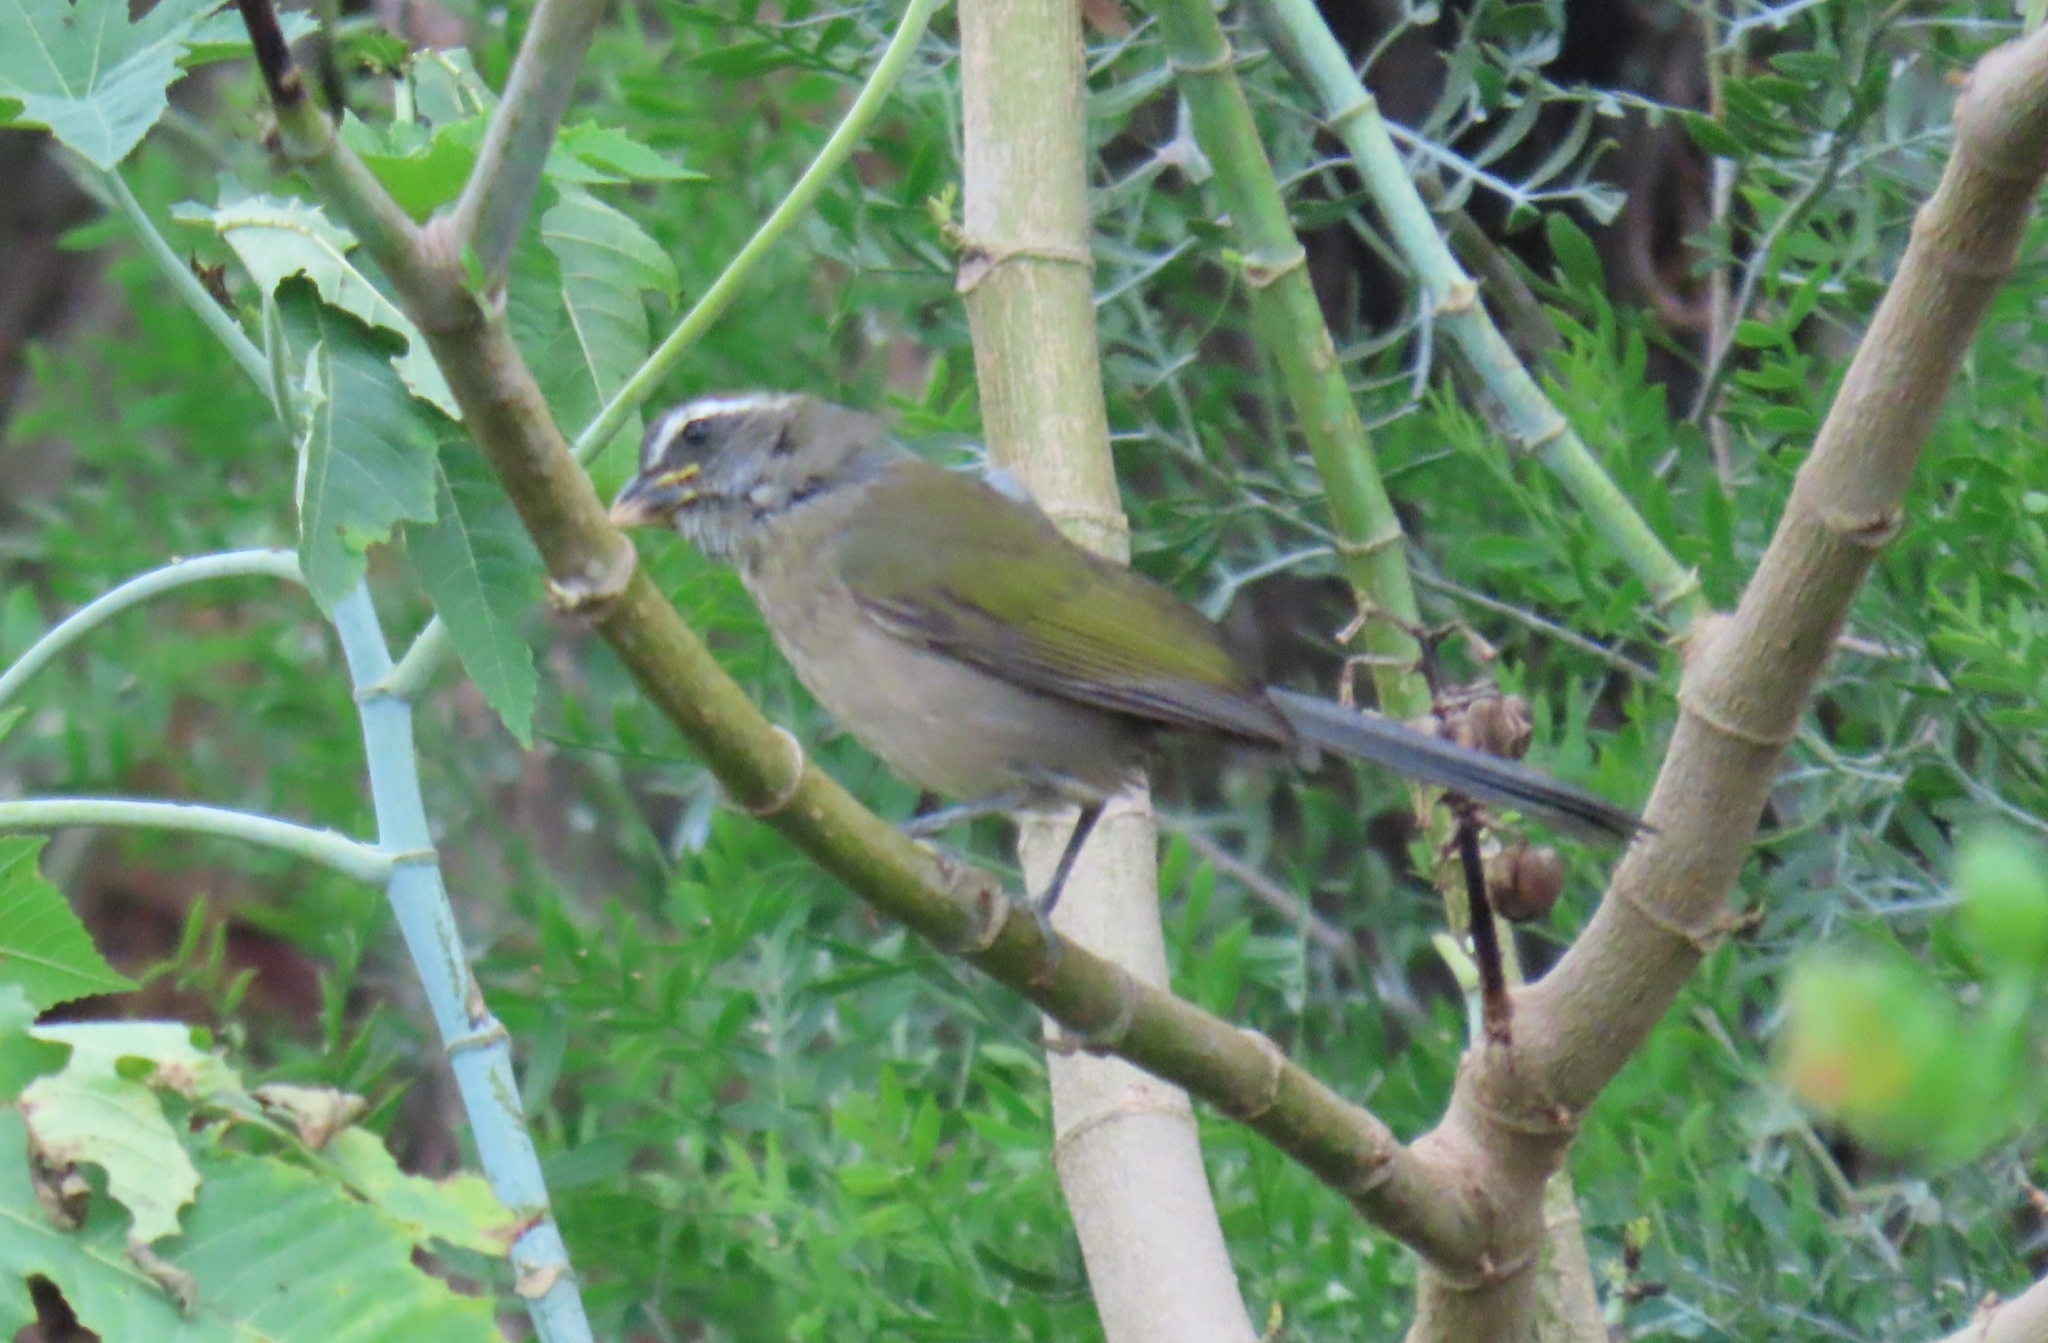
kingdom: Animalia
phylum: Chordata
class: Aves
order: Passeriformes
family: Thraupidae
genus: Saltator
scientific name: Saltator similis
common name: Green-winged saltator
